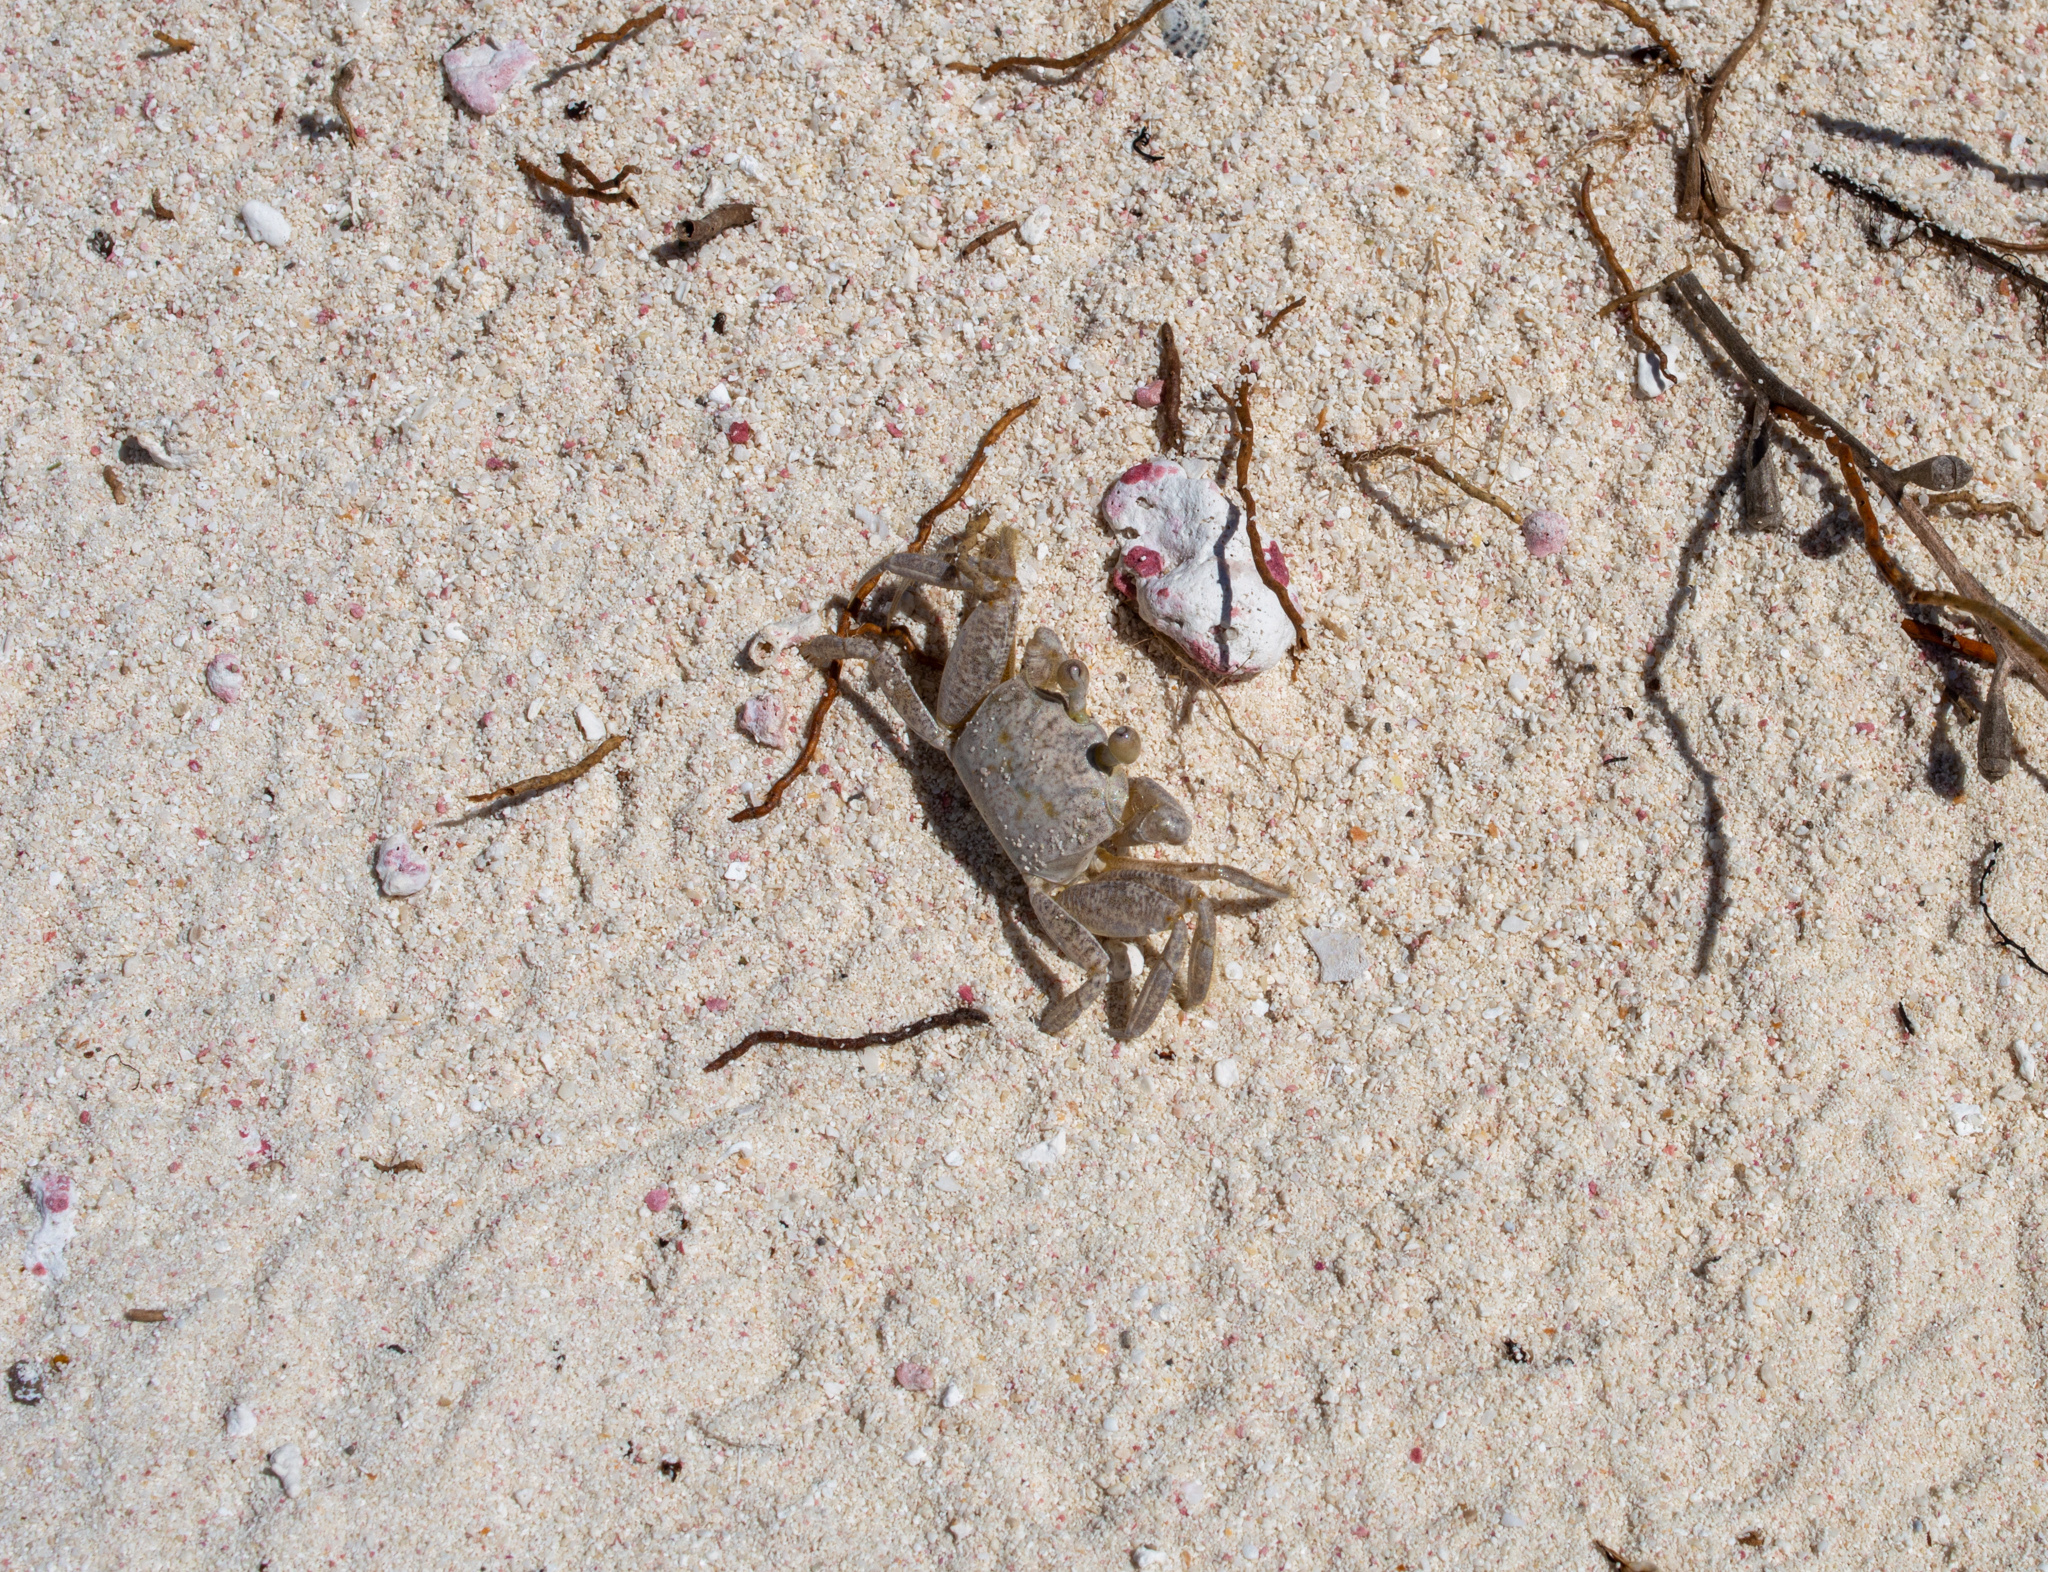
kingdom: Animalia
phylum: Arthropoda
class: Malacostraca
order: Decapoda
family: Ocypodidae
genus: Ocypode
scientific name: Ocypode quadrata
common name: Ghost crab
